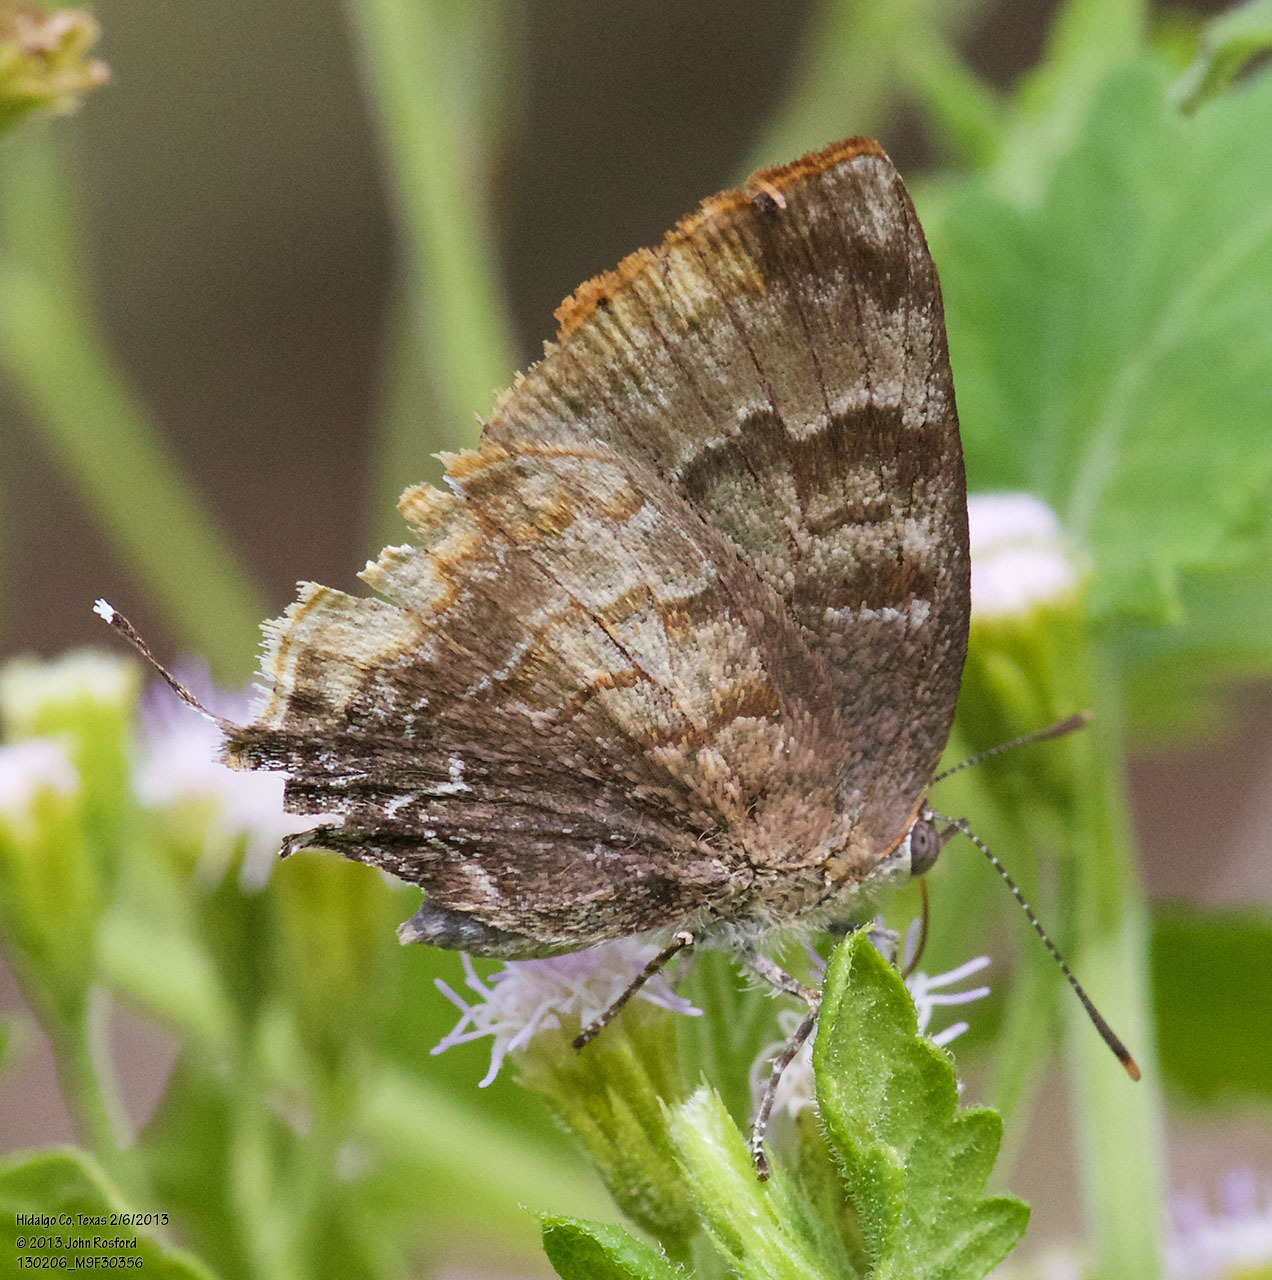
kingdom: Animalia
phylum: Arthropoda
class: Insecta
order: Lepidoptera
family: Lycaenidae
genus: Rekoa
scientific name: Rekoa palegon
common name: Gold-bordered hairstreak
